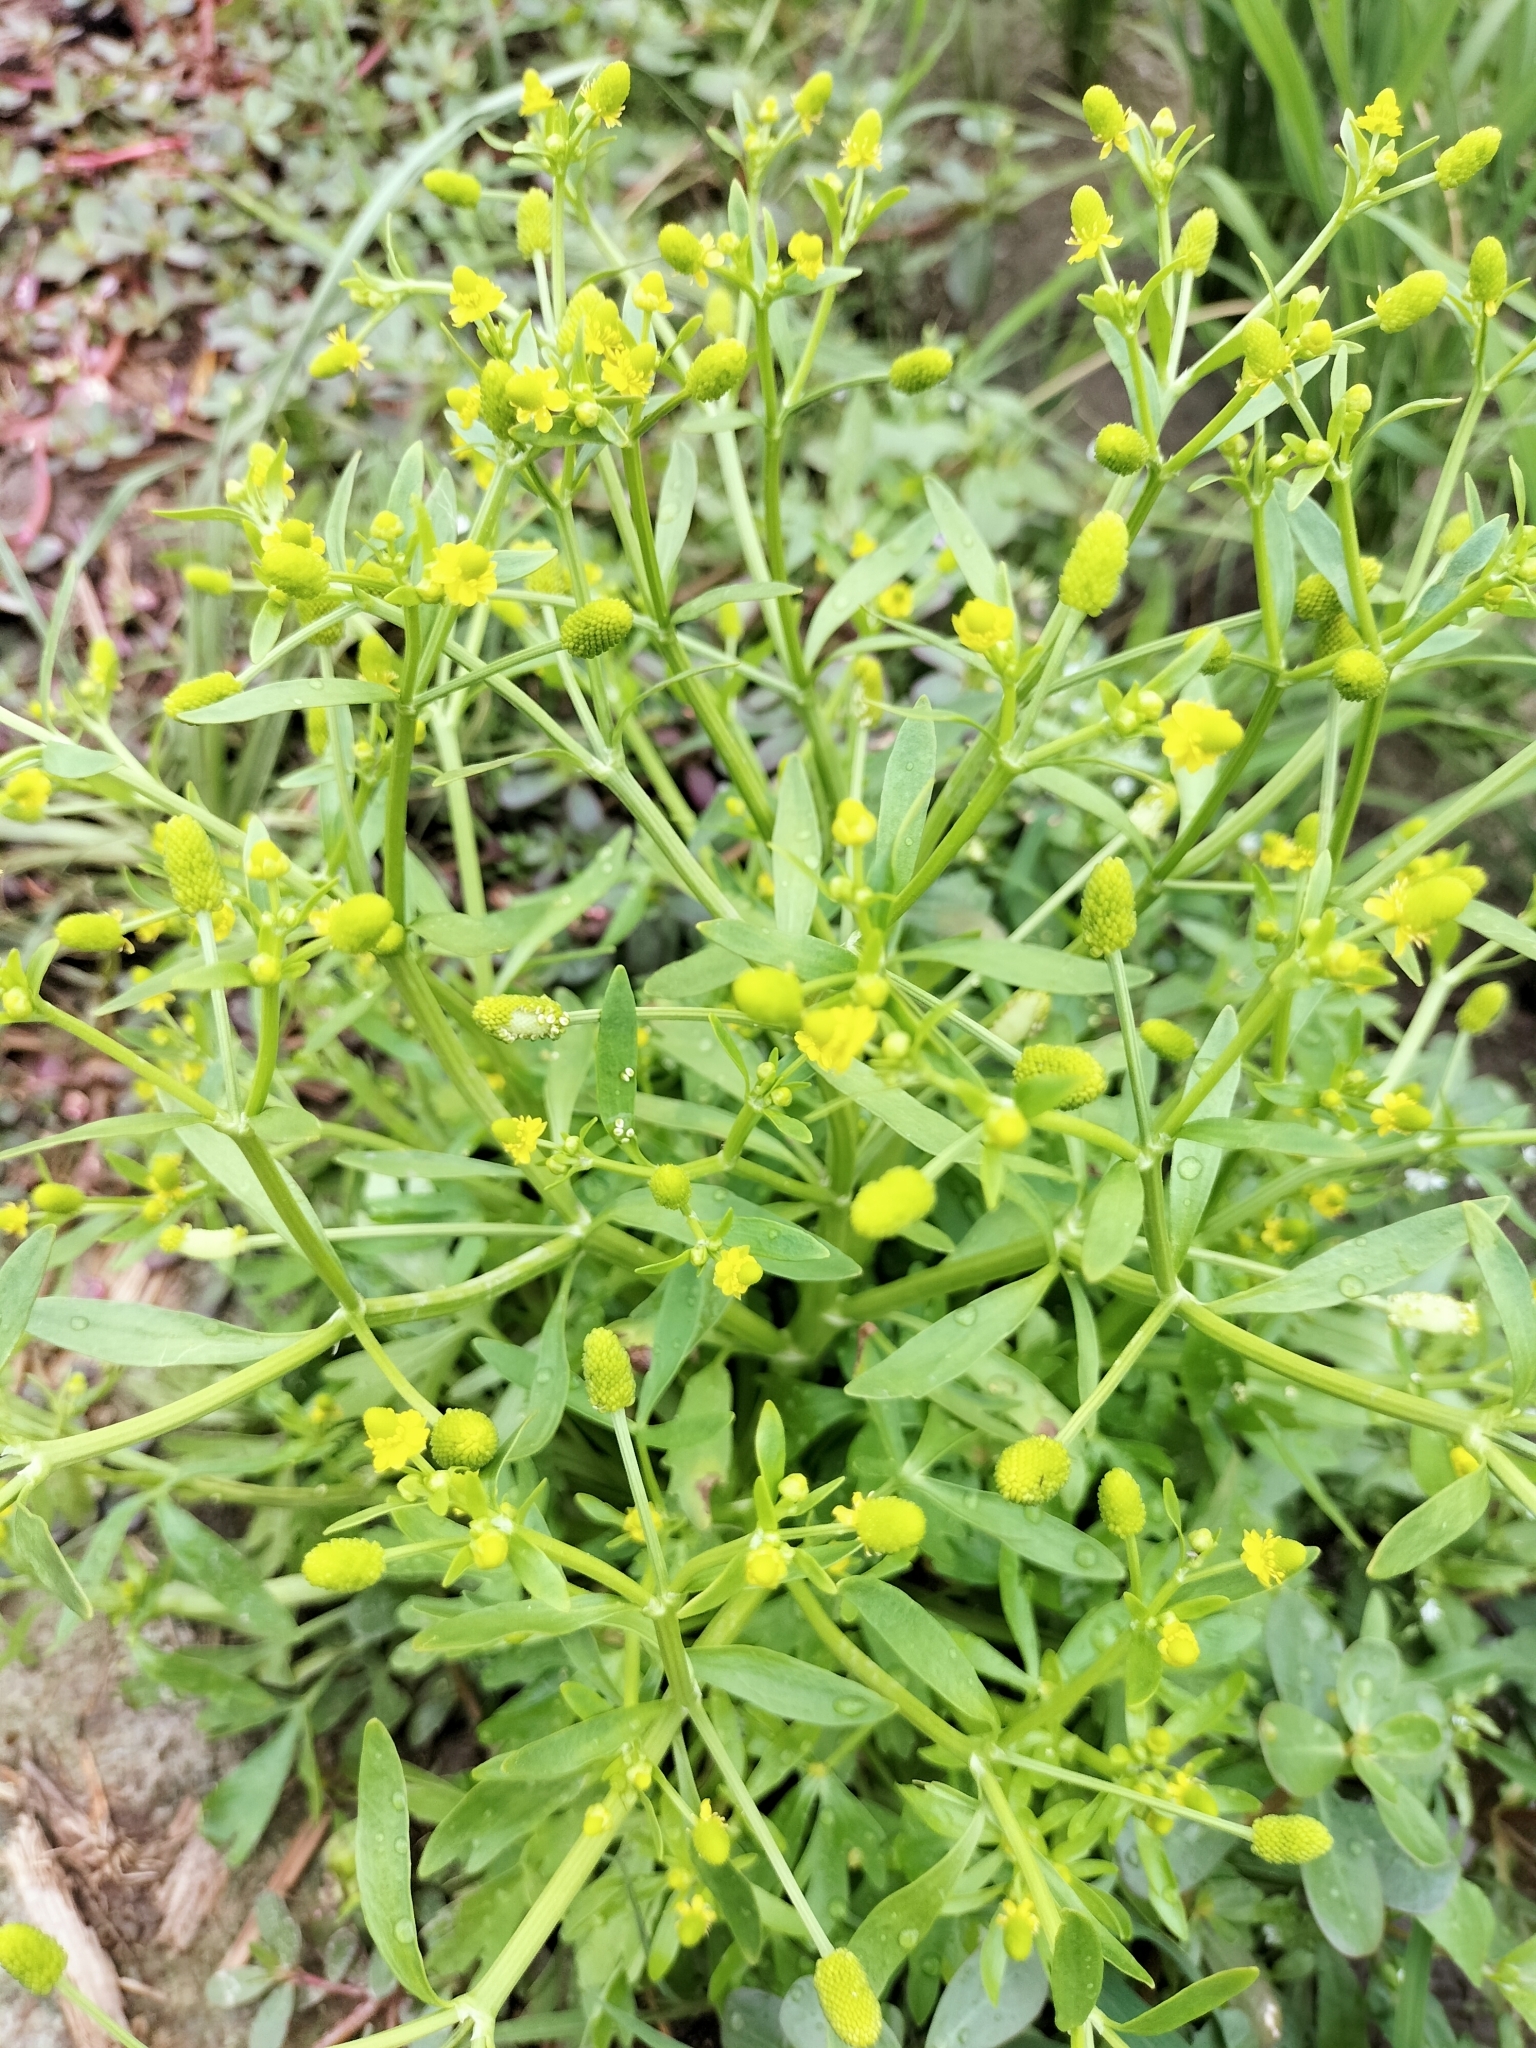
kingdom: Plantae
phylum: Tracheophyta
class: Magnoliopsida
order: Ranunculales
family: Ranunculaceae
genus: Ranunculus
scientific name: Ranunculus sceleratus
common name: Celery-leaved buttercup
